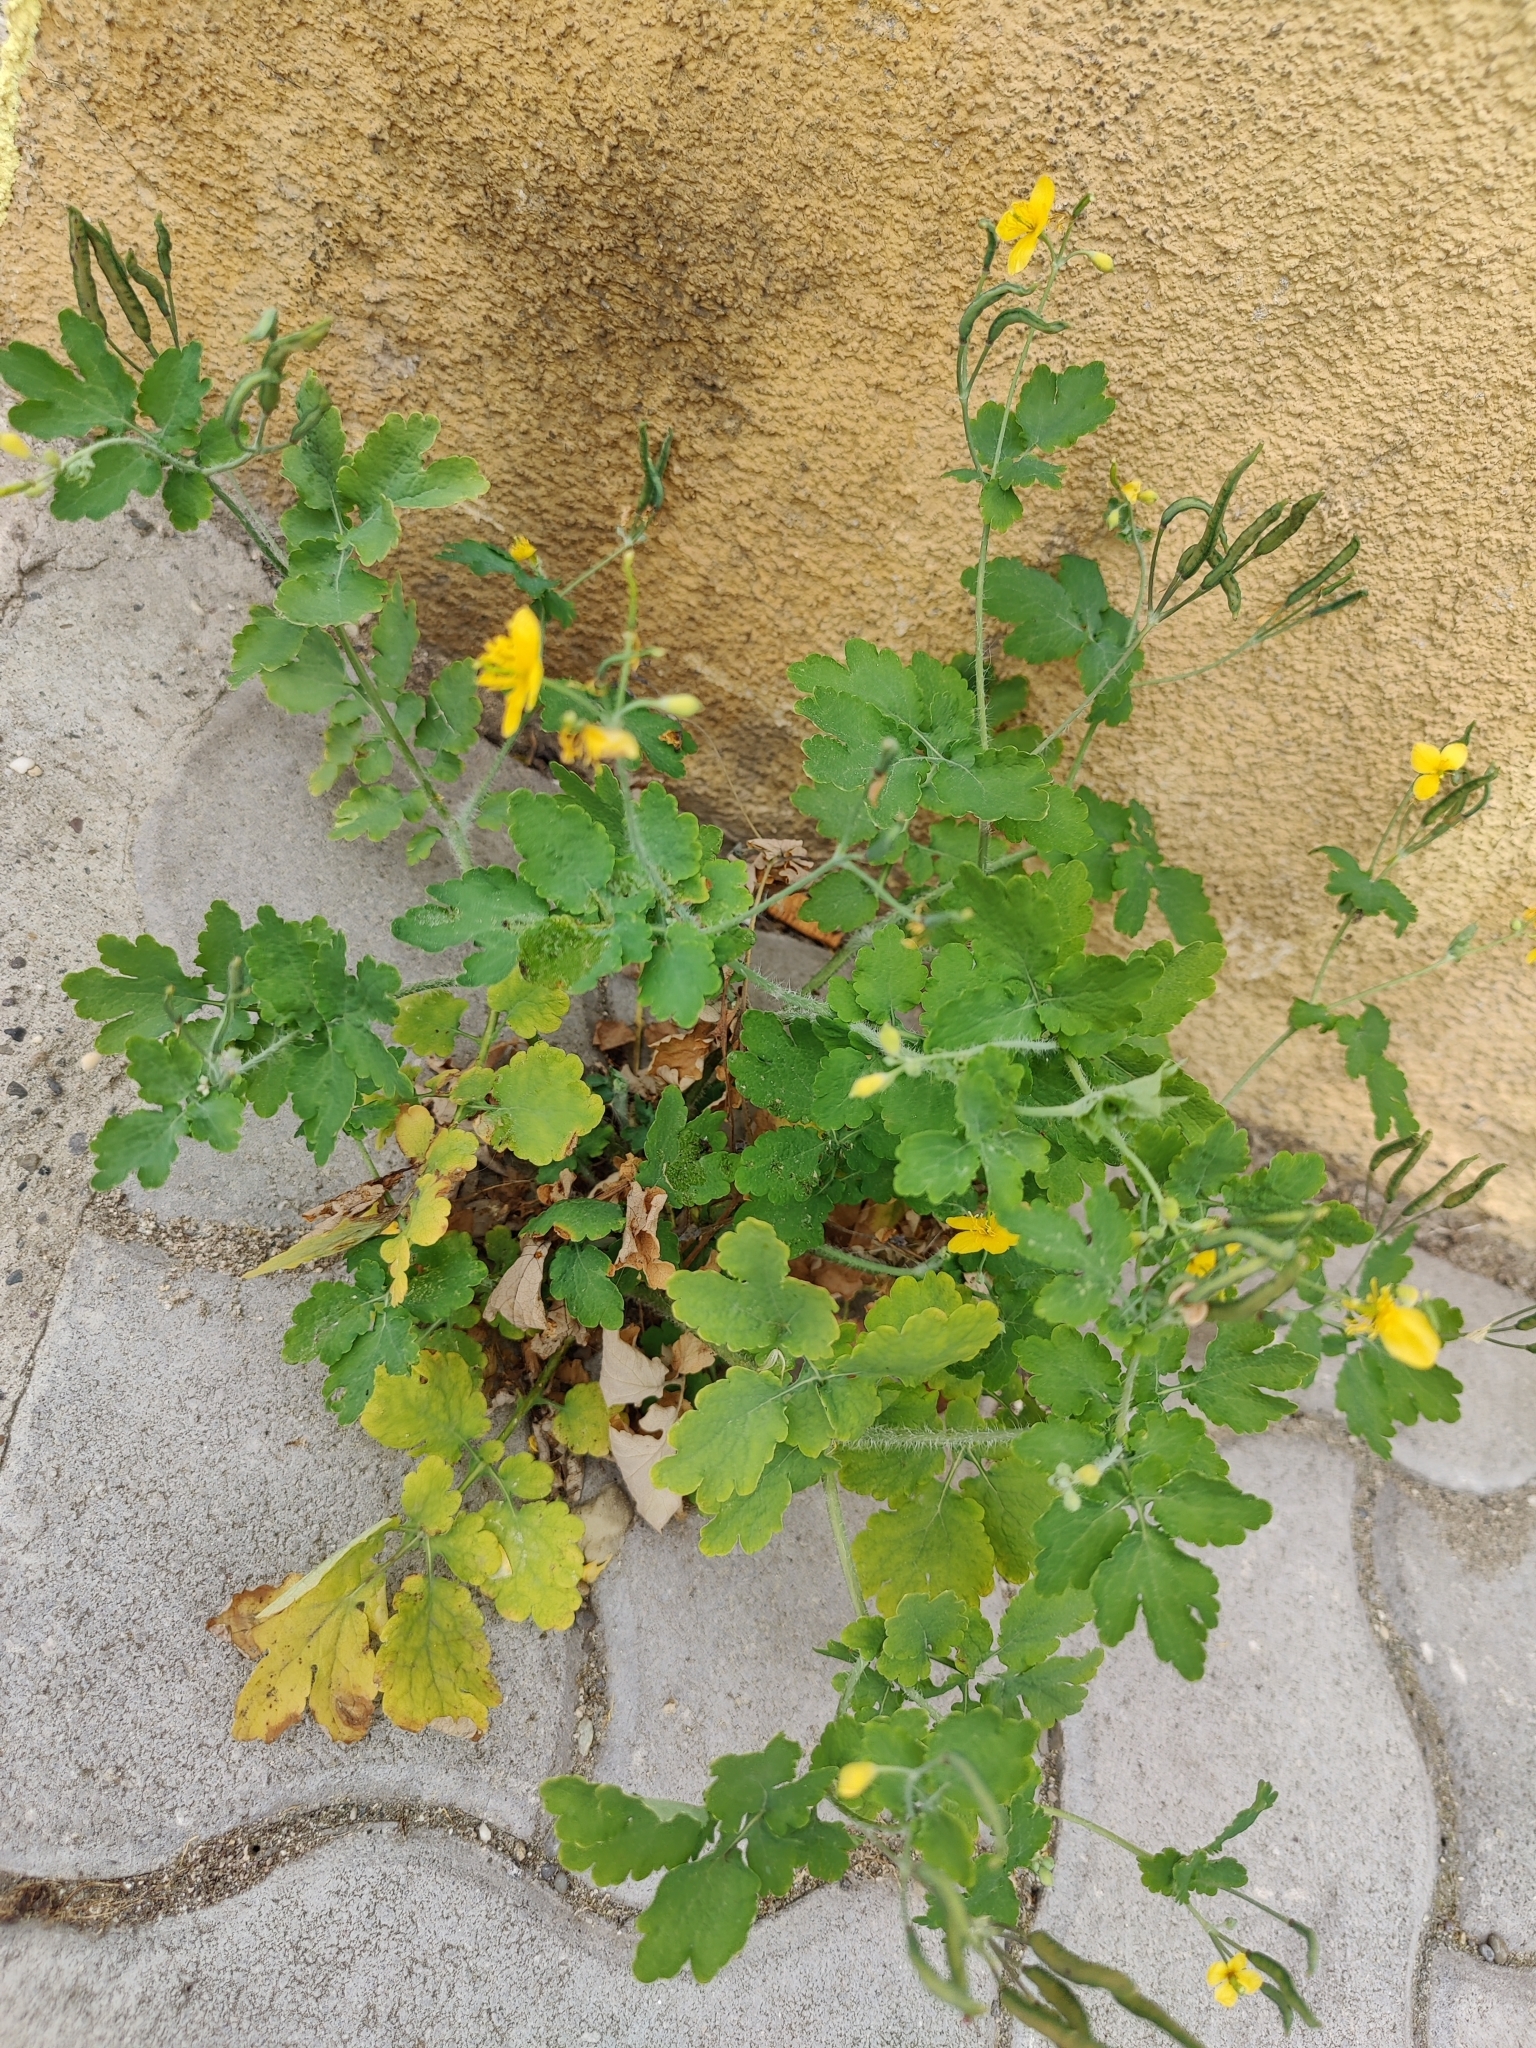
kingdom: Plantae
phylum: Tracheophyta
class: Magnoliopsida
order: Ranunculales
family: Papaveraceae
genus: Chelidonium
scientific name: Chelidonium majus
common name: Greater celandine
